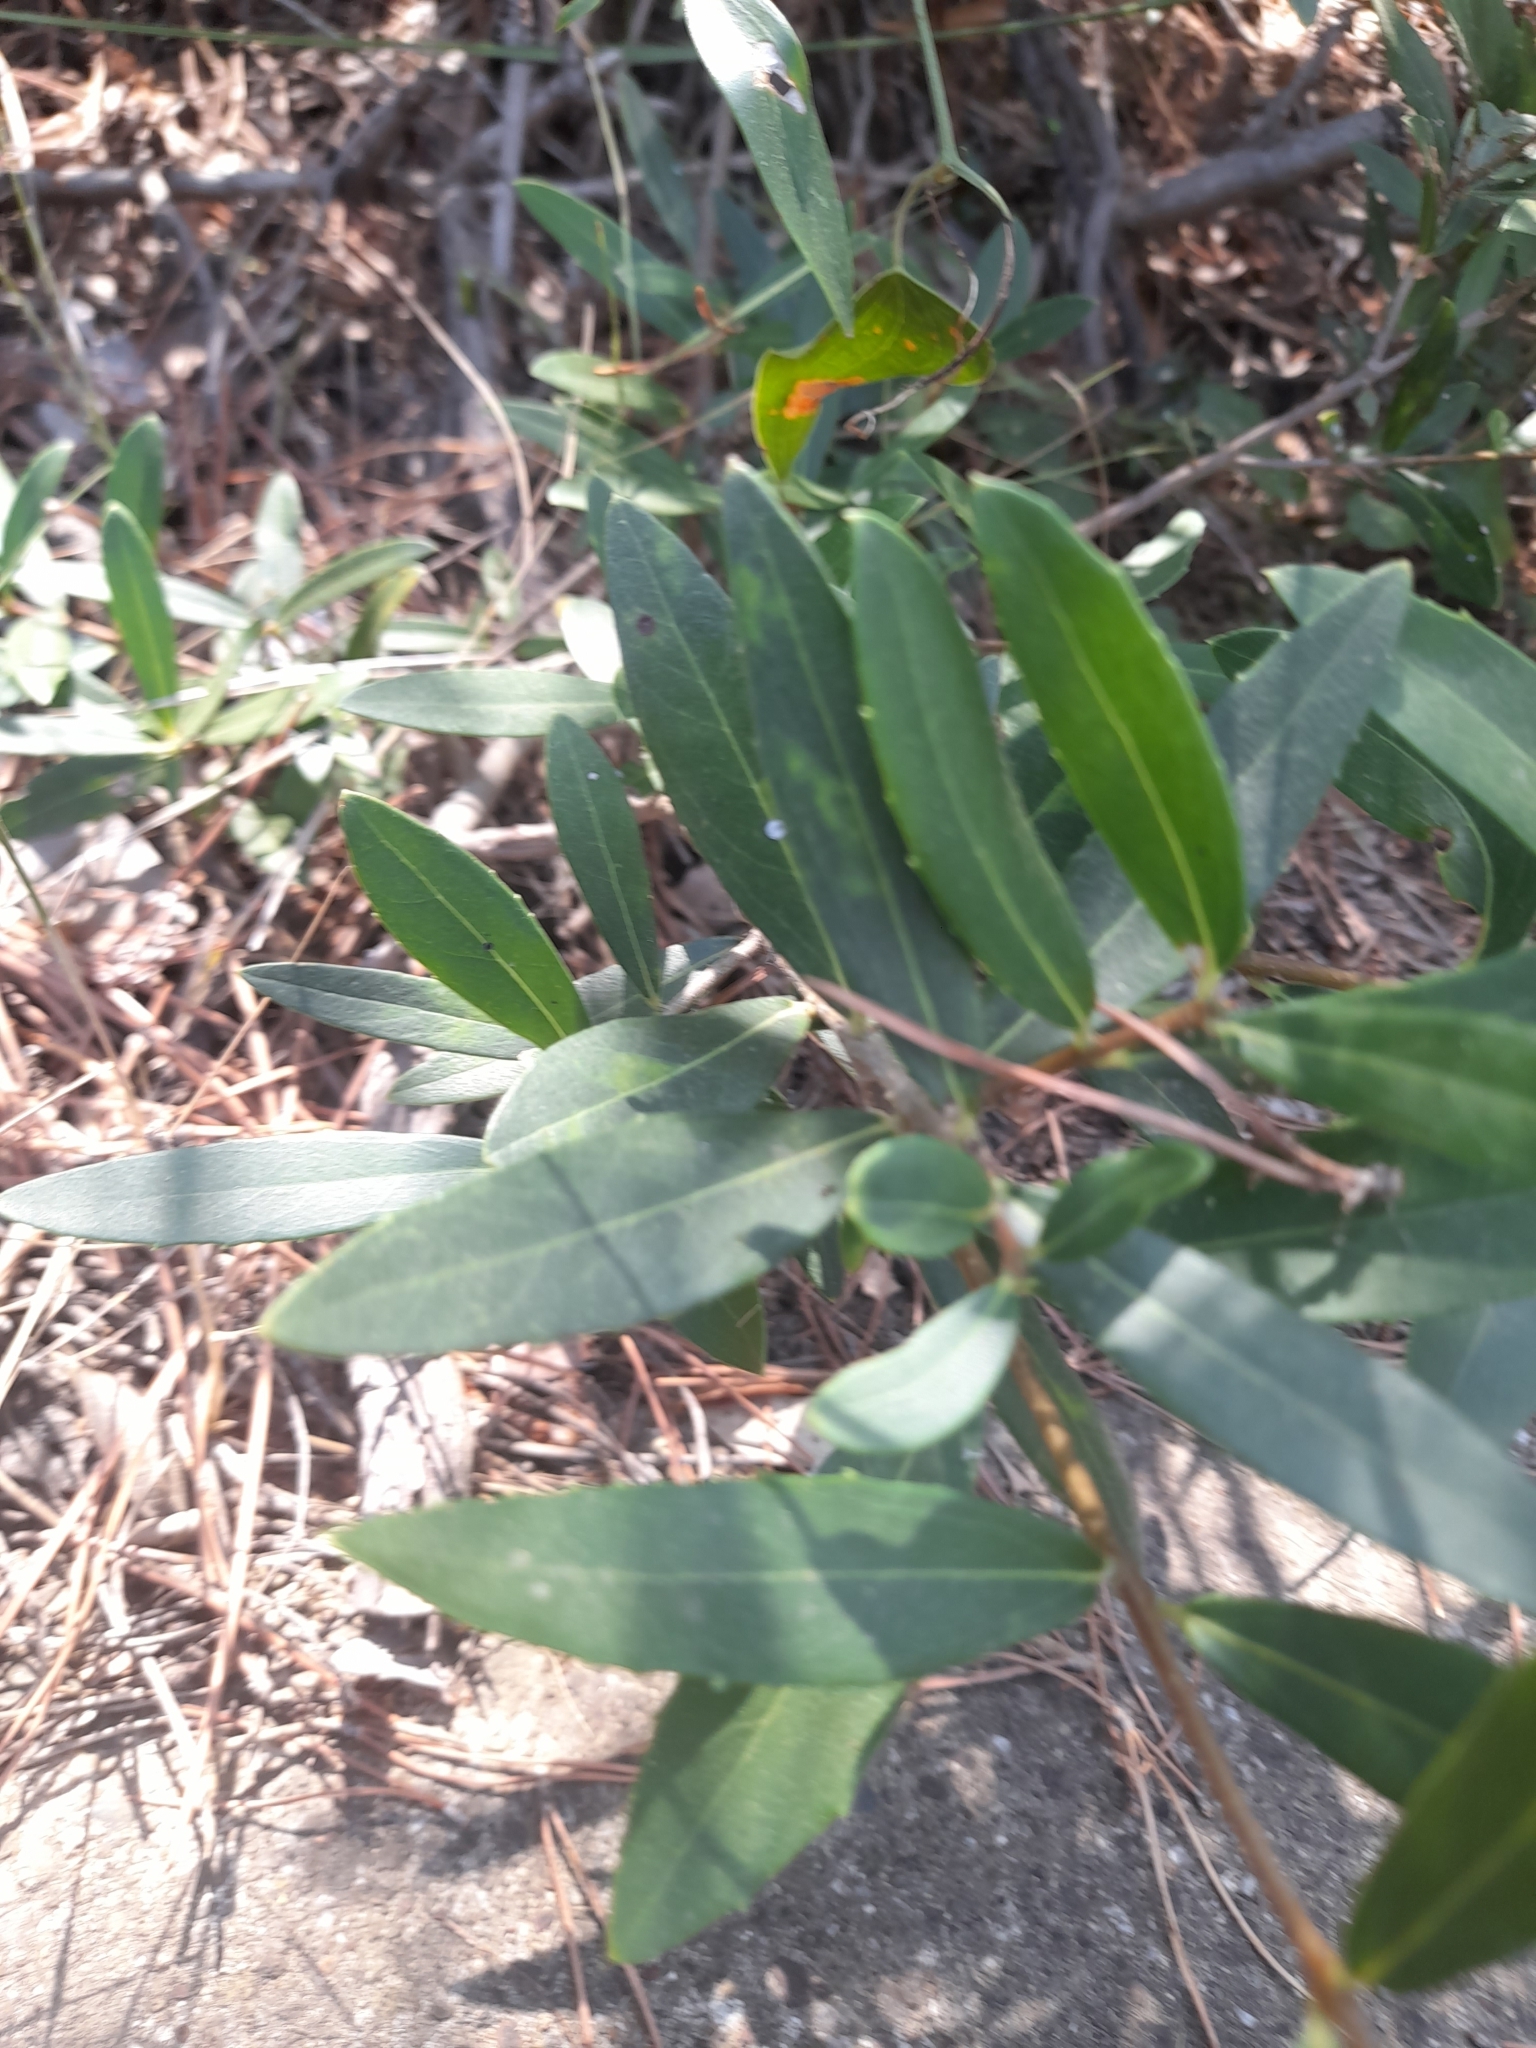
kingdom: Plantae
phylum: Tracheophyta
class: Magnoliopsida
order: Lamiales
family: Oleaceae
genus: Phillyrea
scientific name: Phillyrea angustifolia
